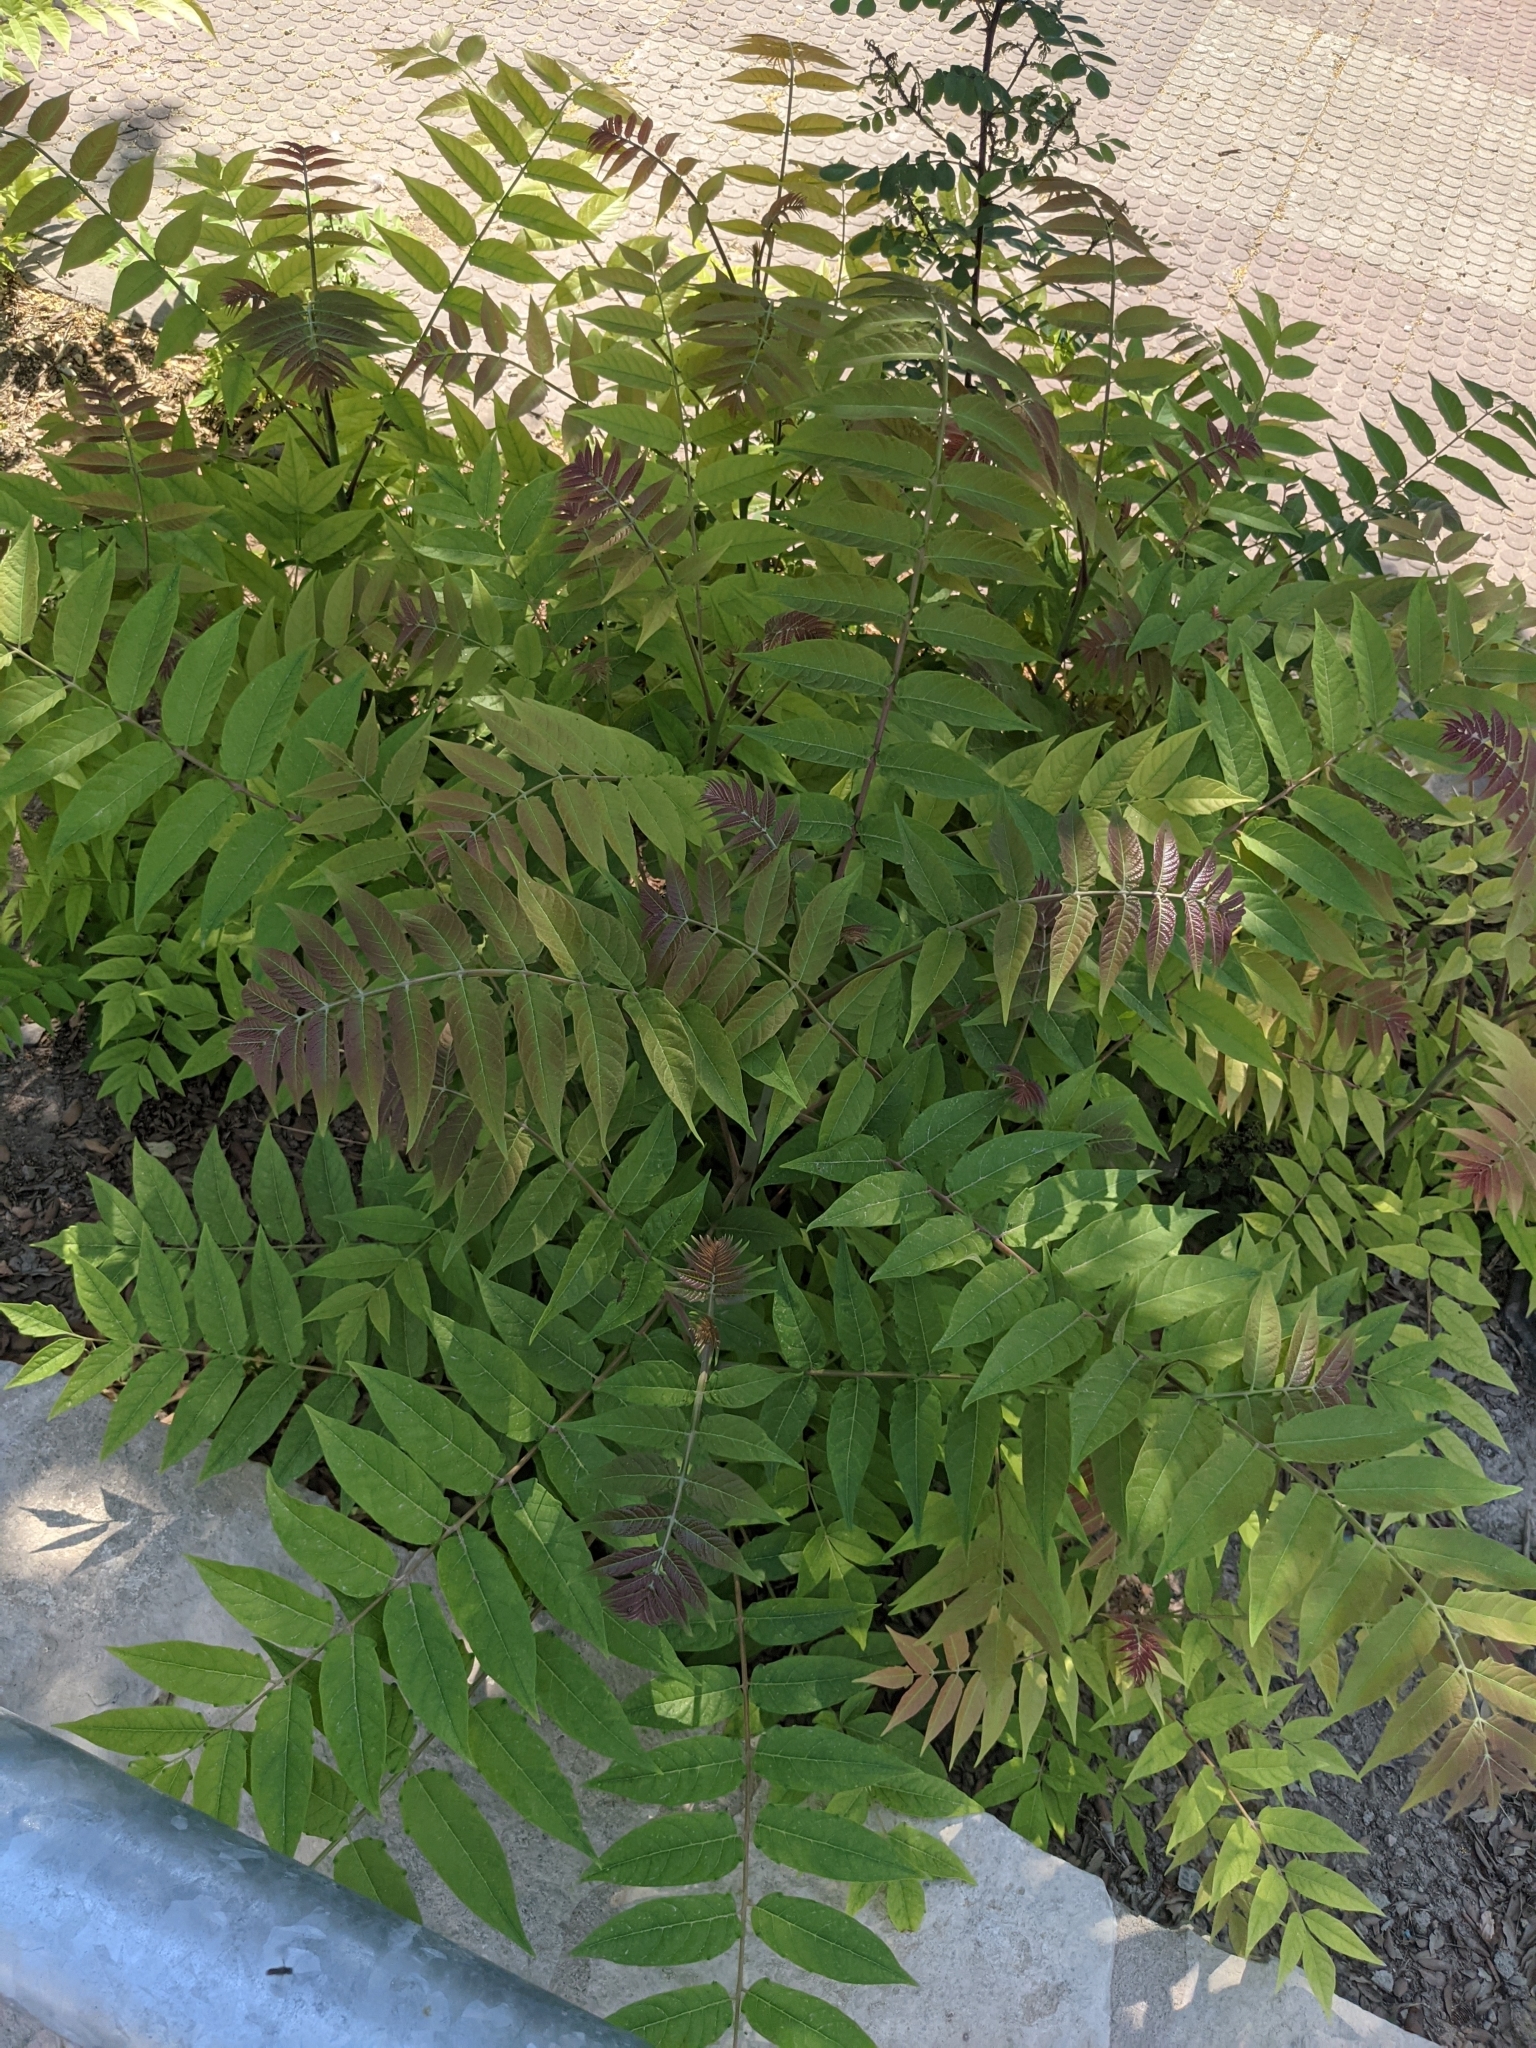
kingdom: Plantae
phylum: Tracheophyta
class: Magnoliopsida
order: Sapindales
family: Simaroubaceae
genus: Ailanthus
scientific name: Ailanthus altissima
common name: Tree-of-heaven
